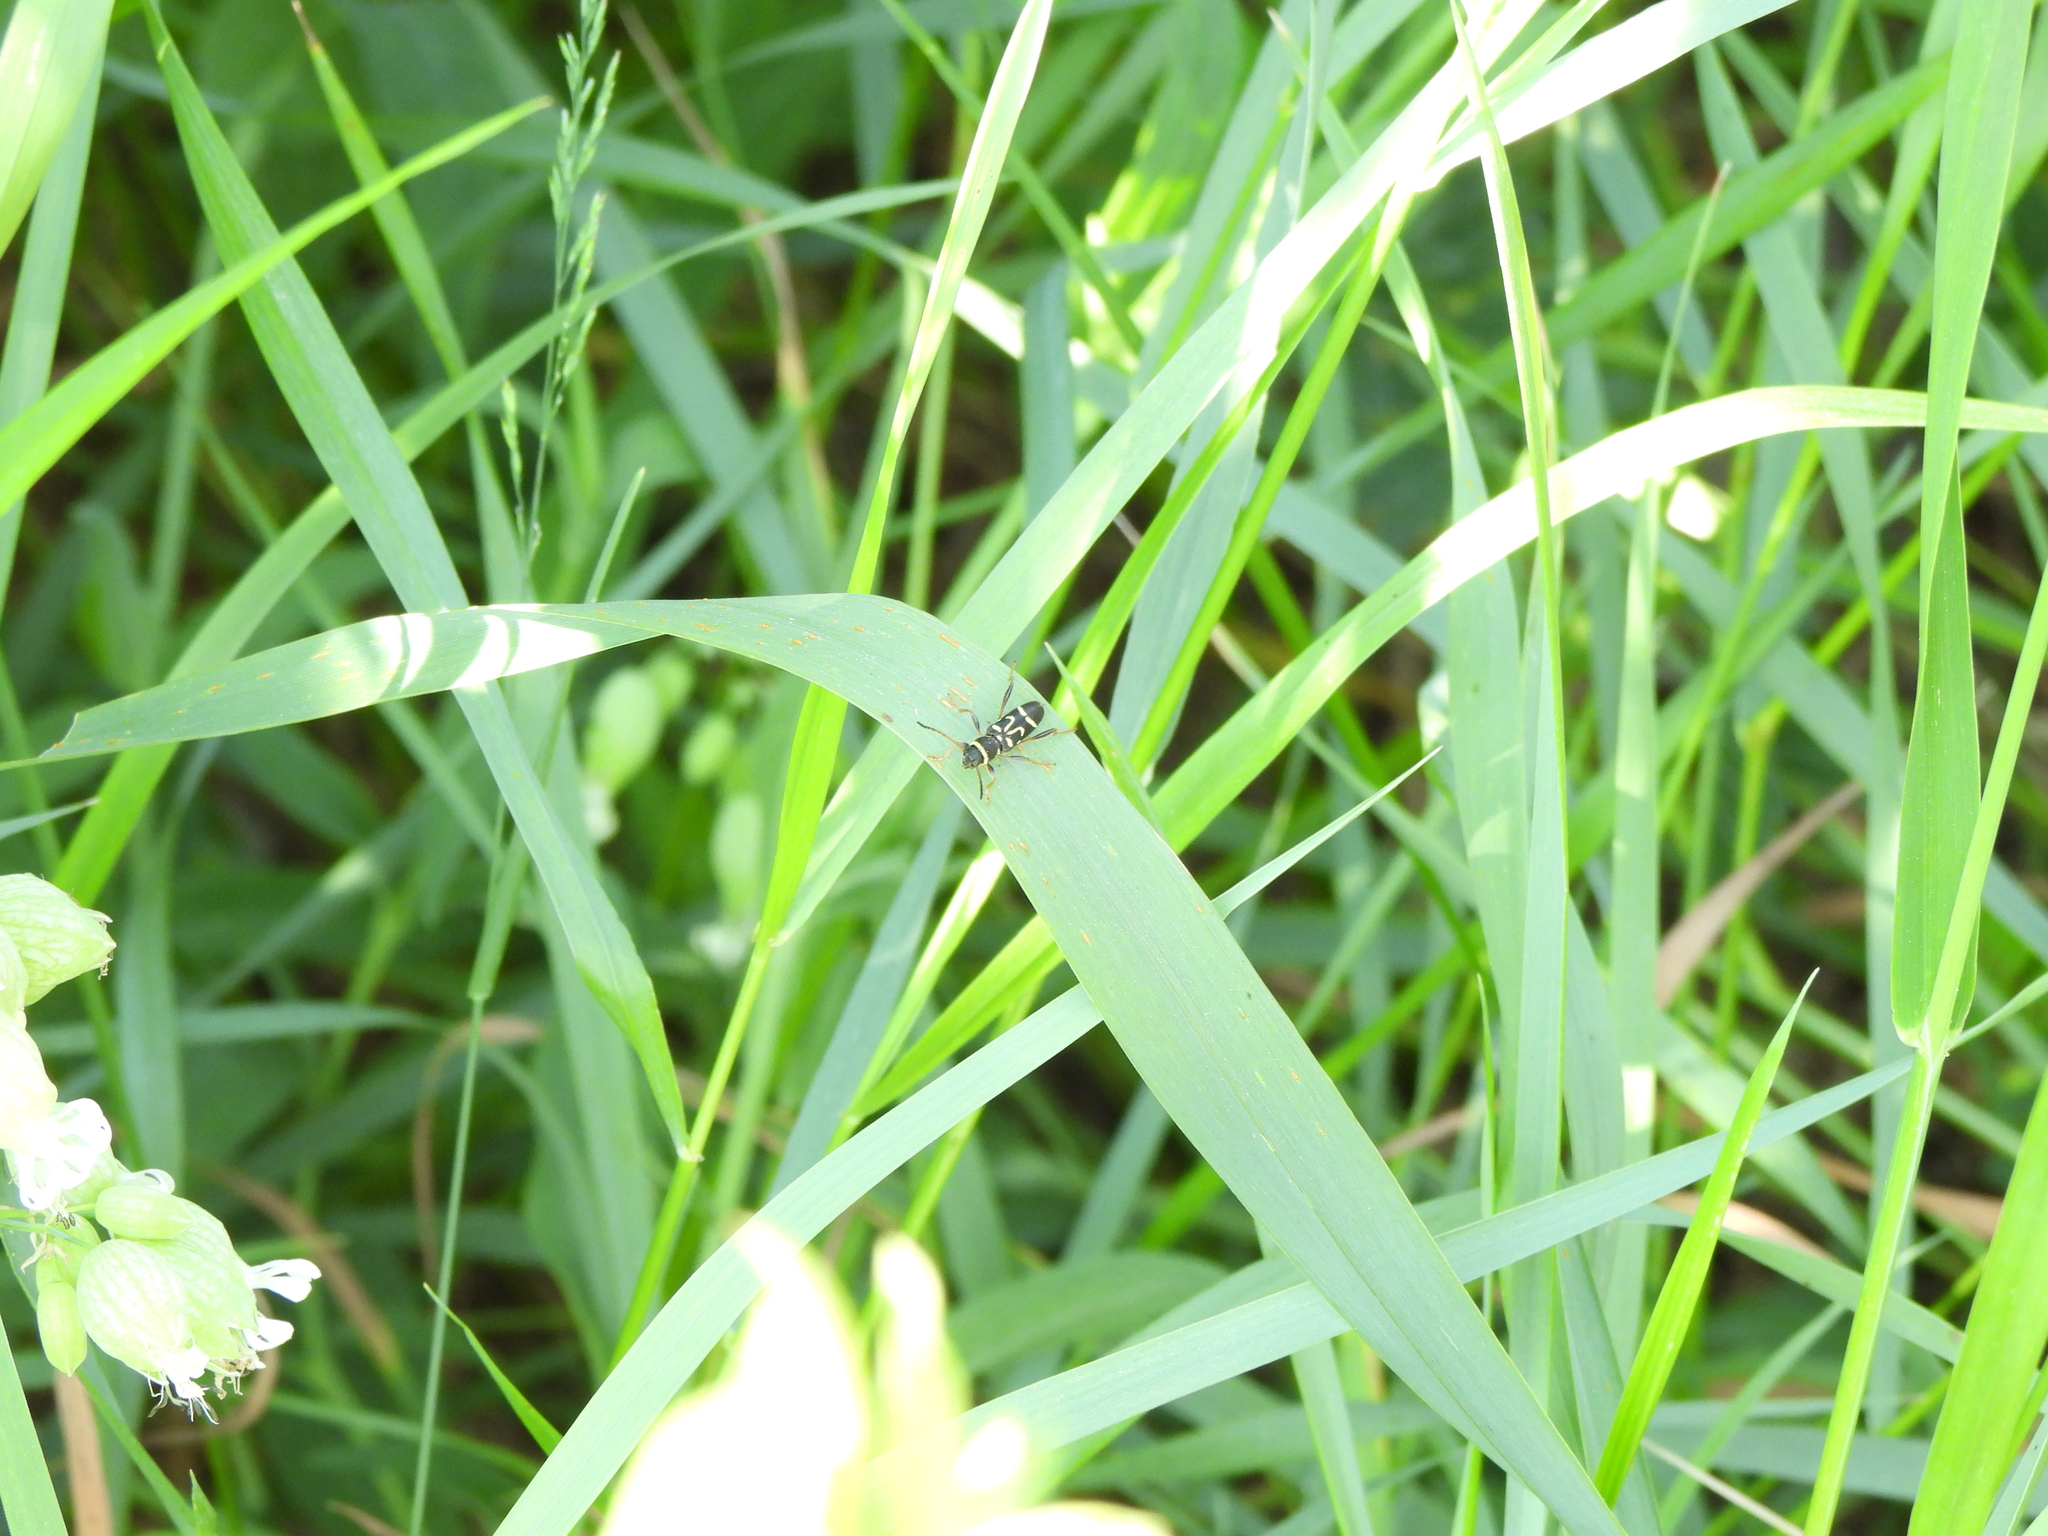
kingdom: Animalia
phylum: Arthropoda
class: Insecta
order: Coleoptera
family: Cerambycidae
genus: Clytus
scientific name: Clytus ruricola
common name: Round-necked longhorn beetle
